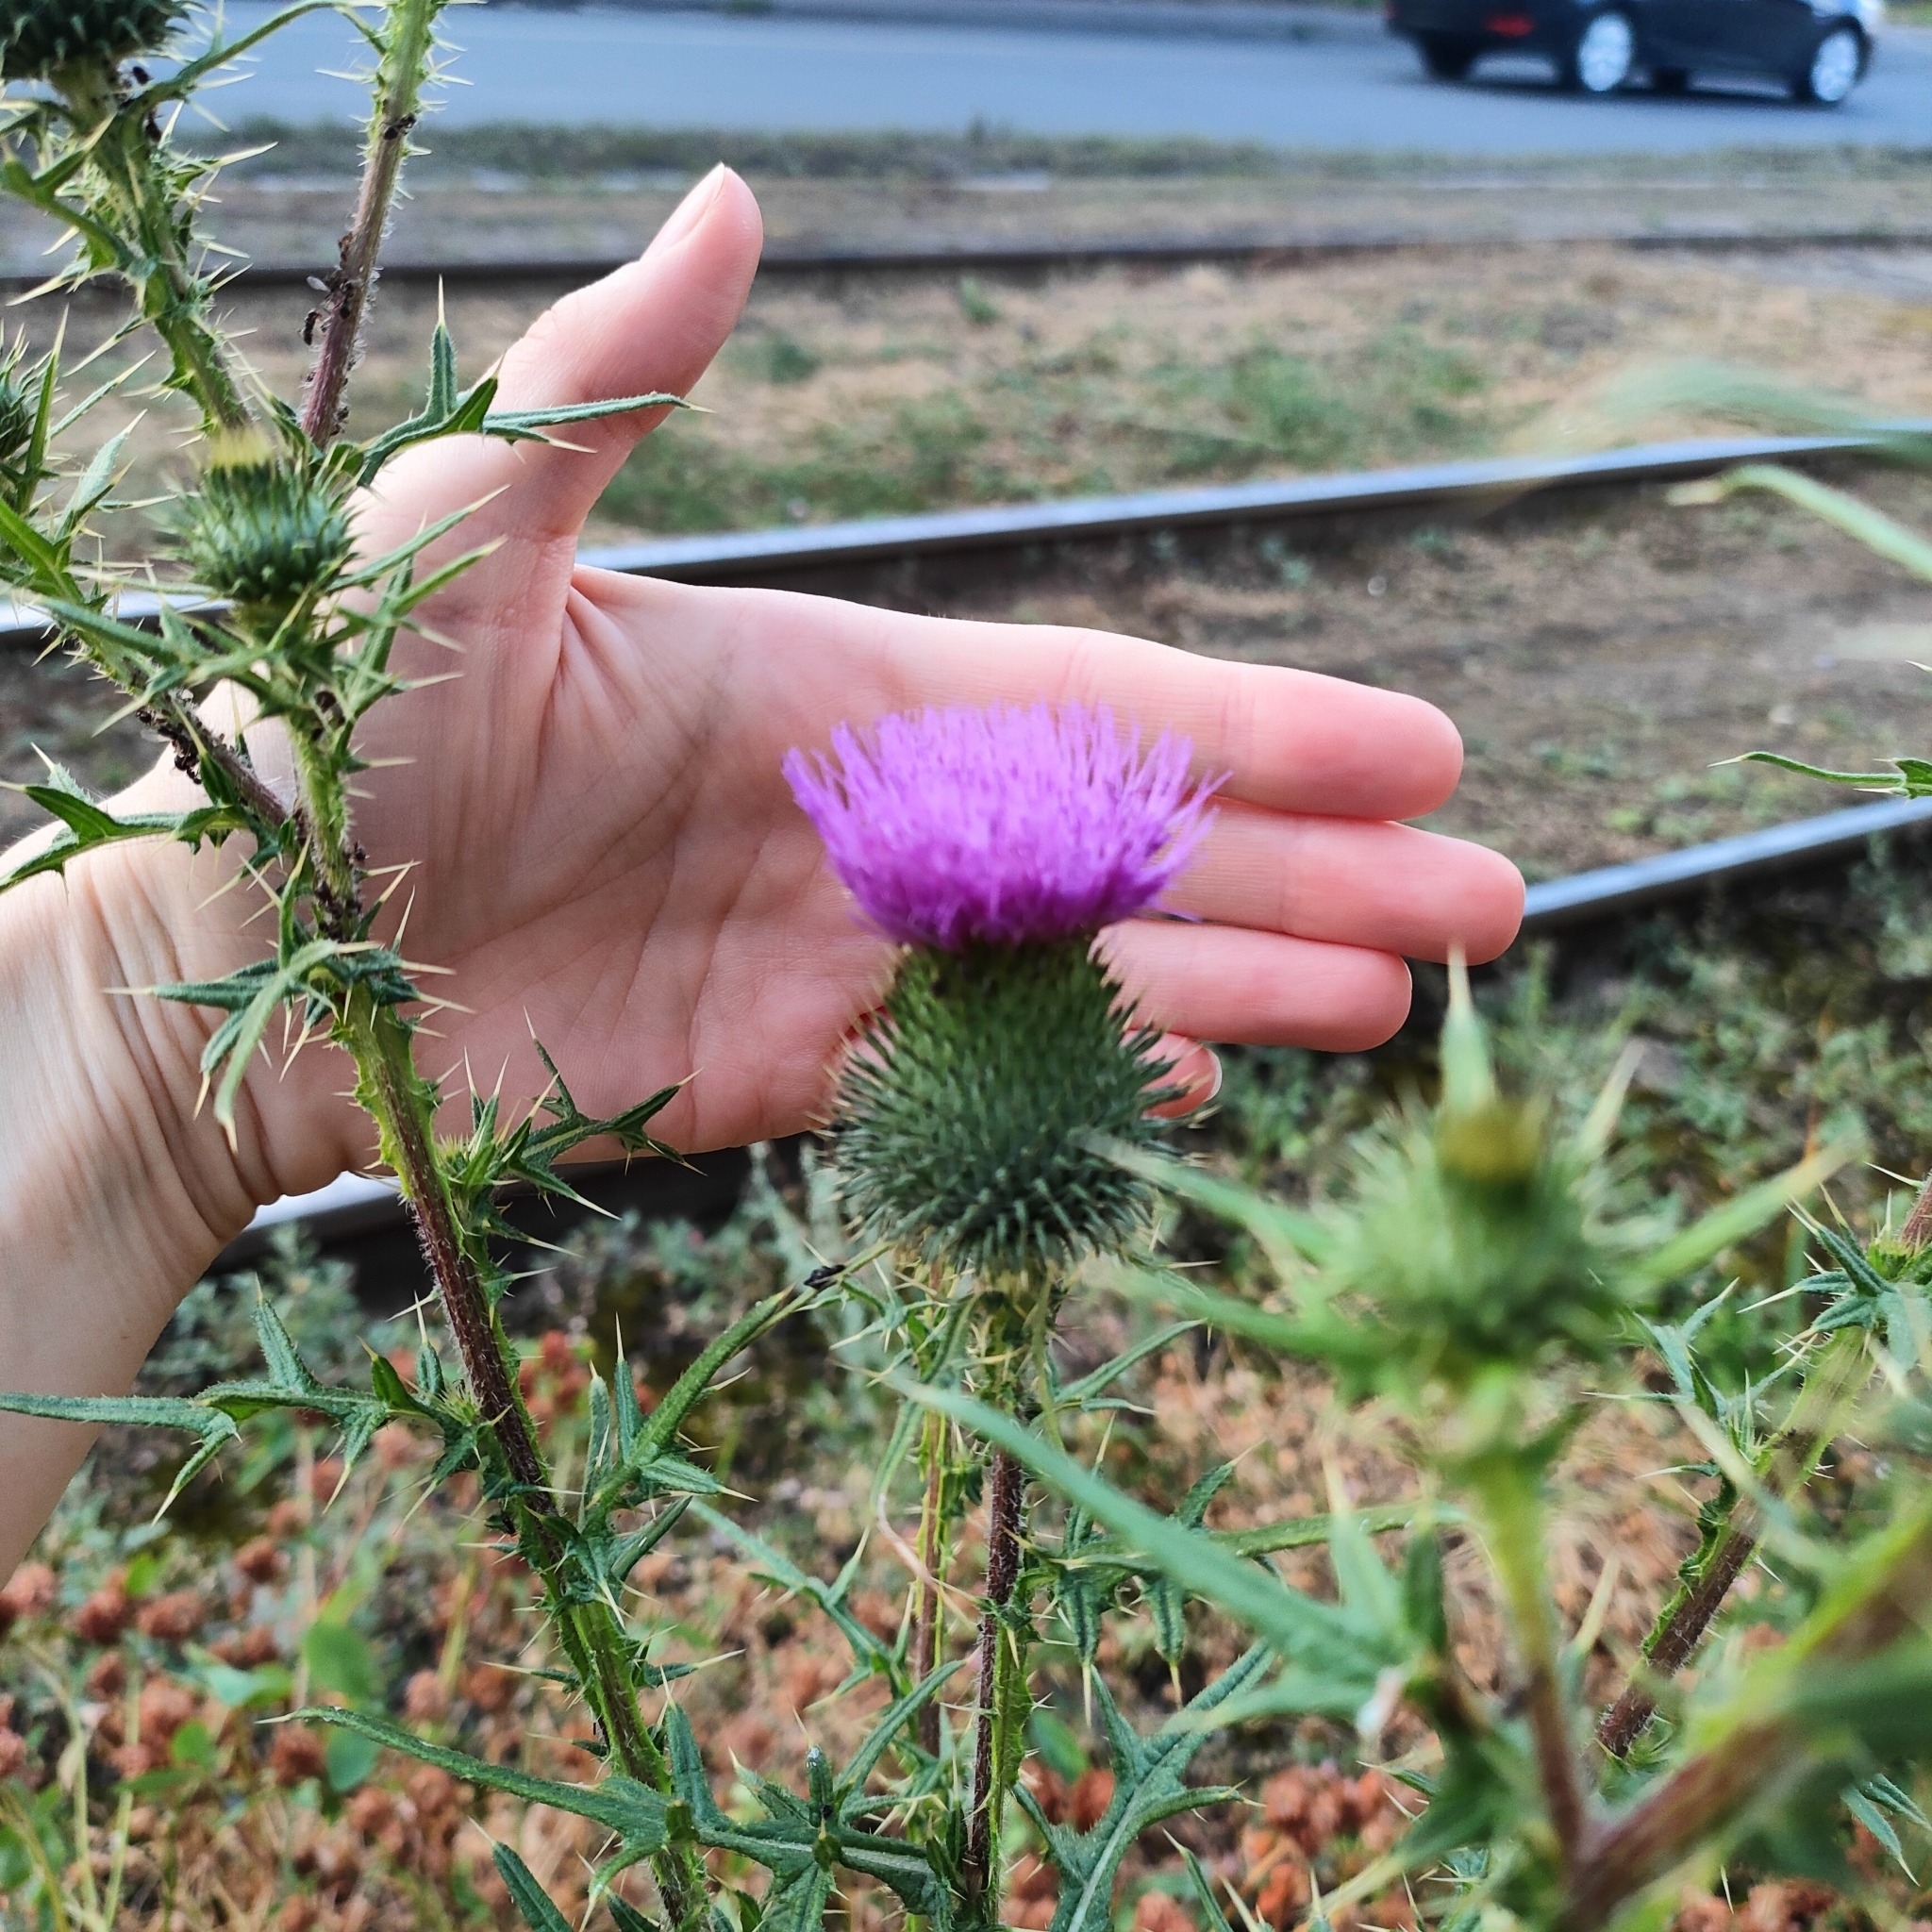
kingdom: Plantae
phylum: Tracheophyta
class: Magnoliopsida
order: Asterales
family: Asteraceae
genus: Cirsium
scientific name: Cirsium vulgare
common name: Bull thistle
